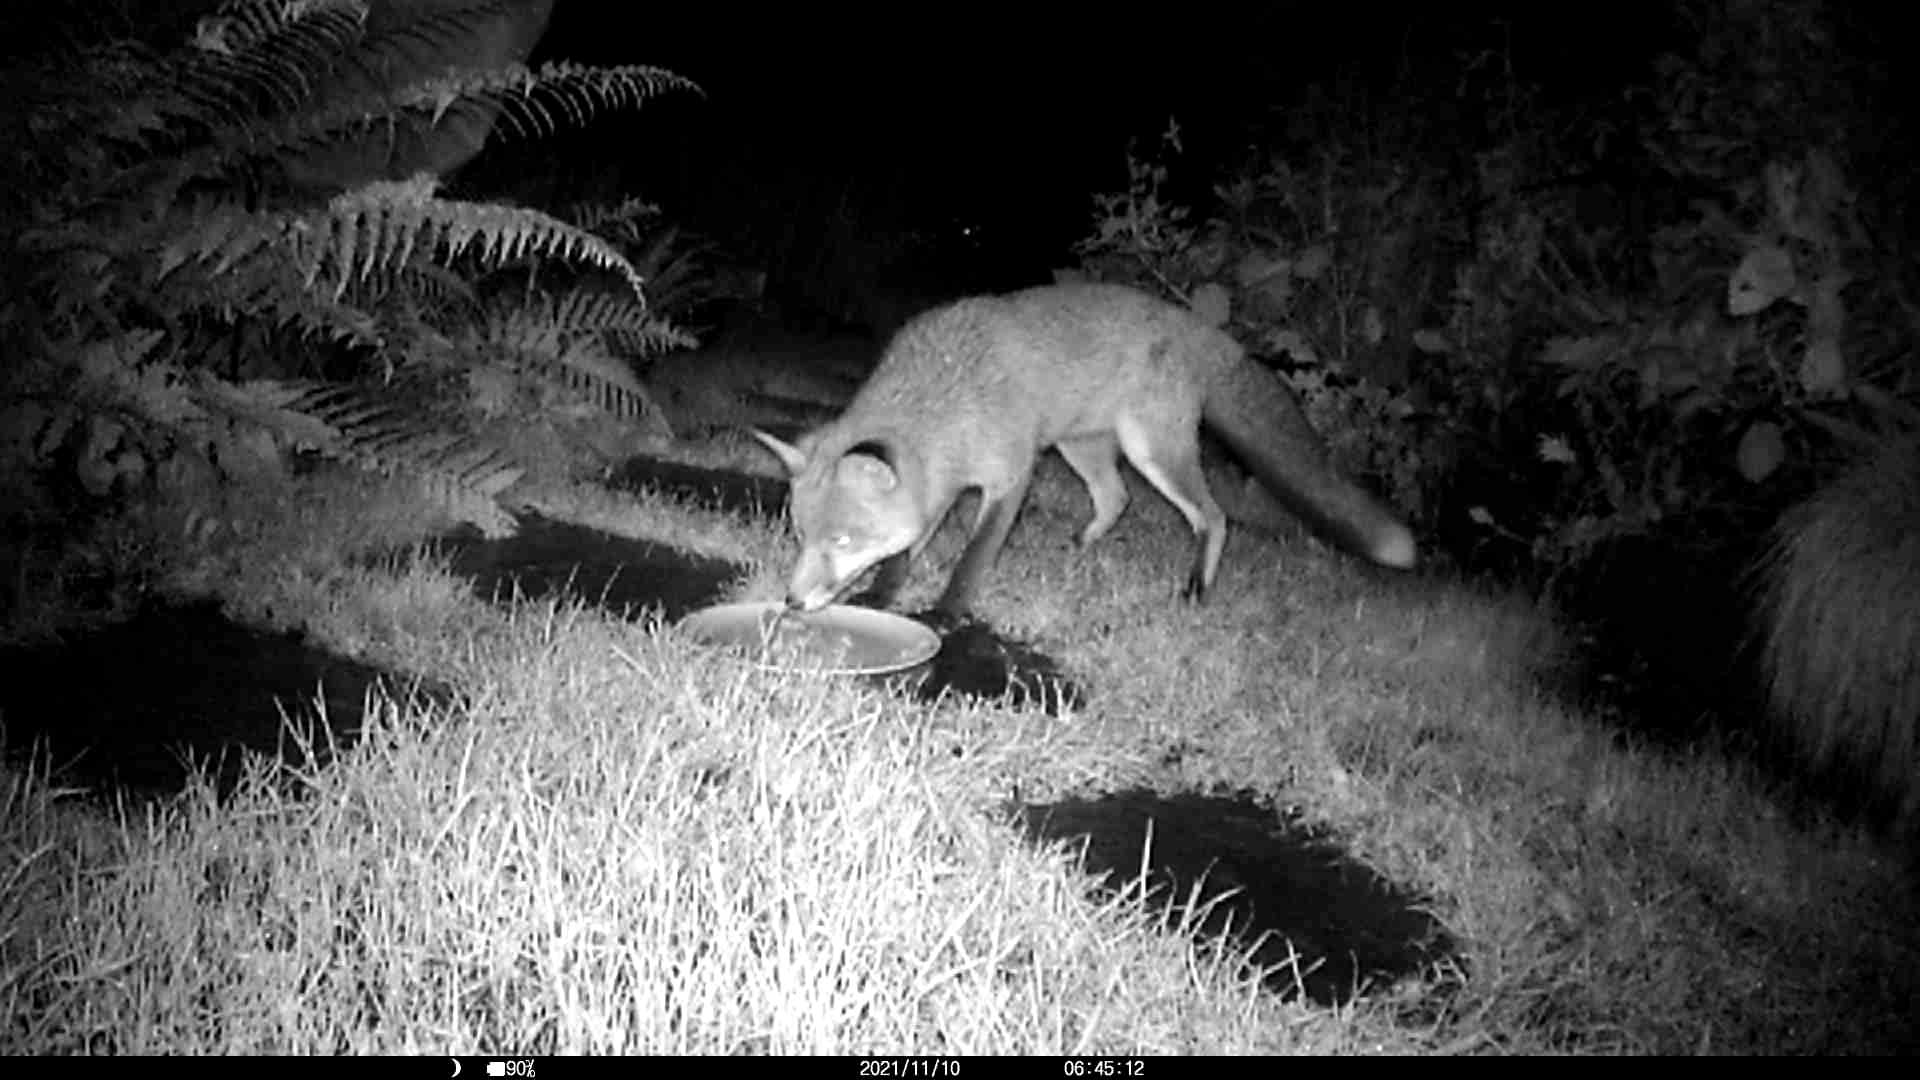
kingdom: Animalia
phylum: Chordata
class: Mammalia
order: Carnivora
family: Canidae
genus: Vulpes
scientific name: Vulpes vulpes
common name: Red fox
